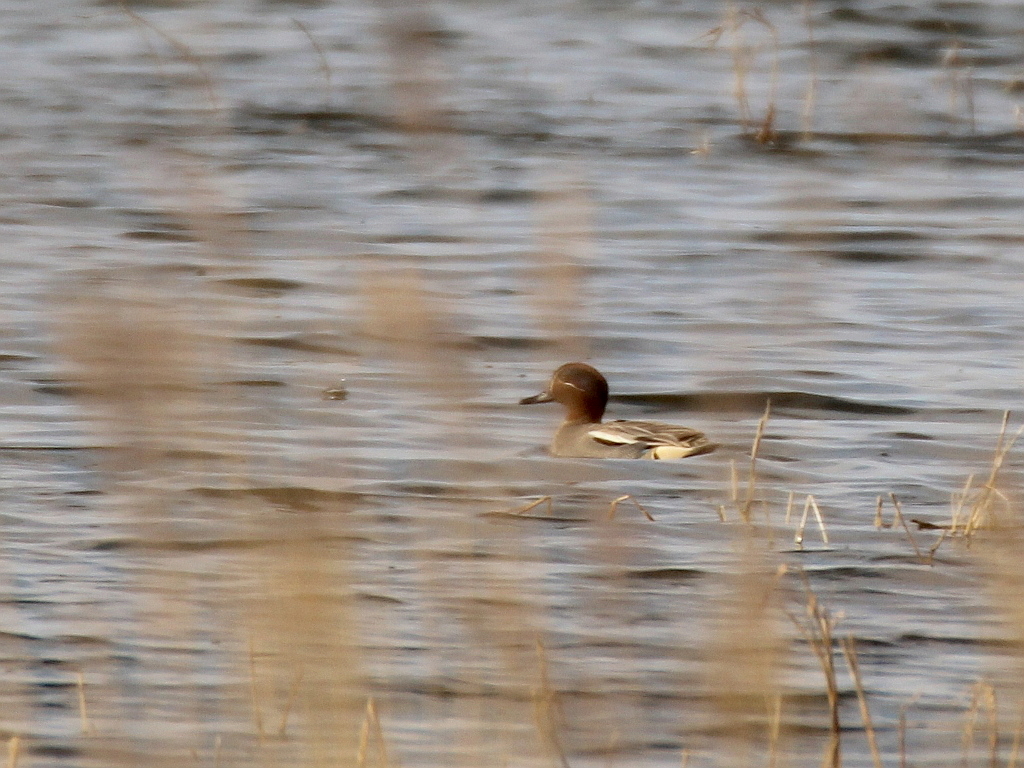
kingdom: Animalia
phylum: Chordata
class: Aves
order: Anseriformes
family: Anatidae
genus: Anas
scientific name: Anas crecca
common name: Eurasian teal
